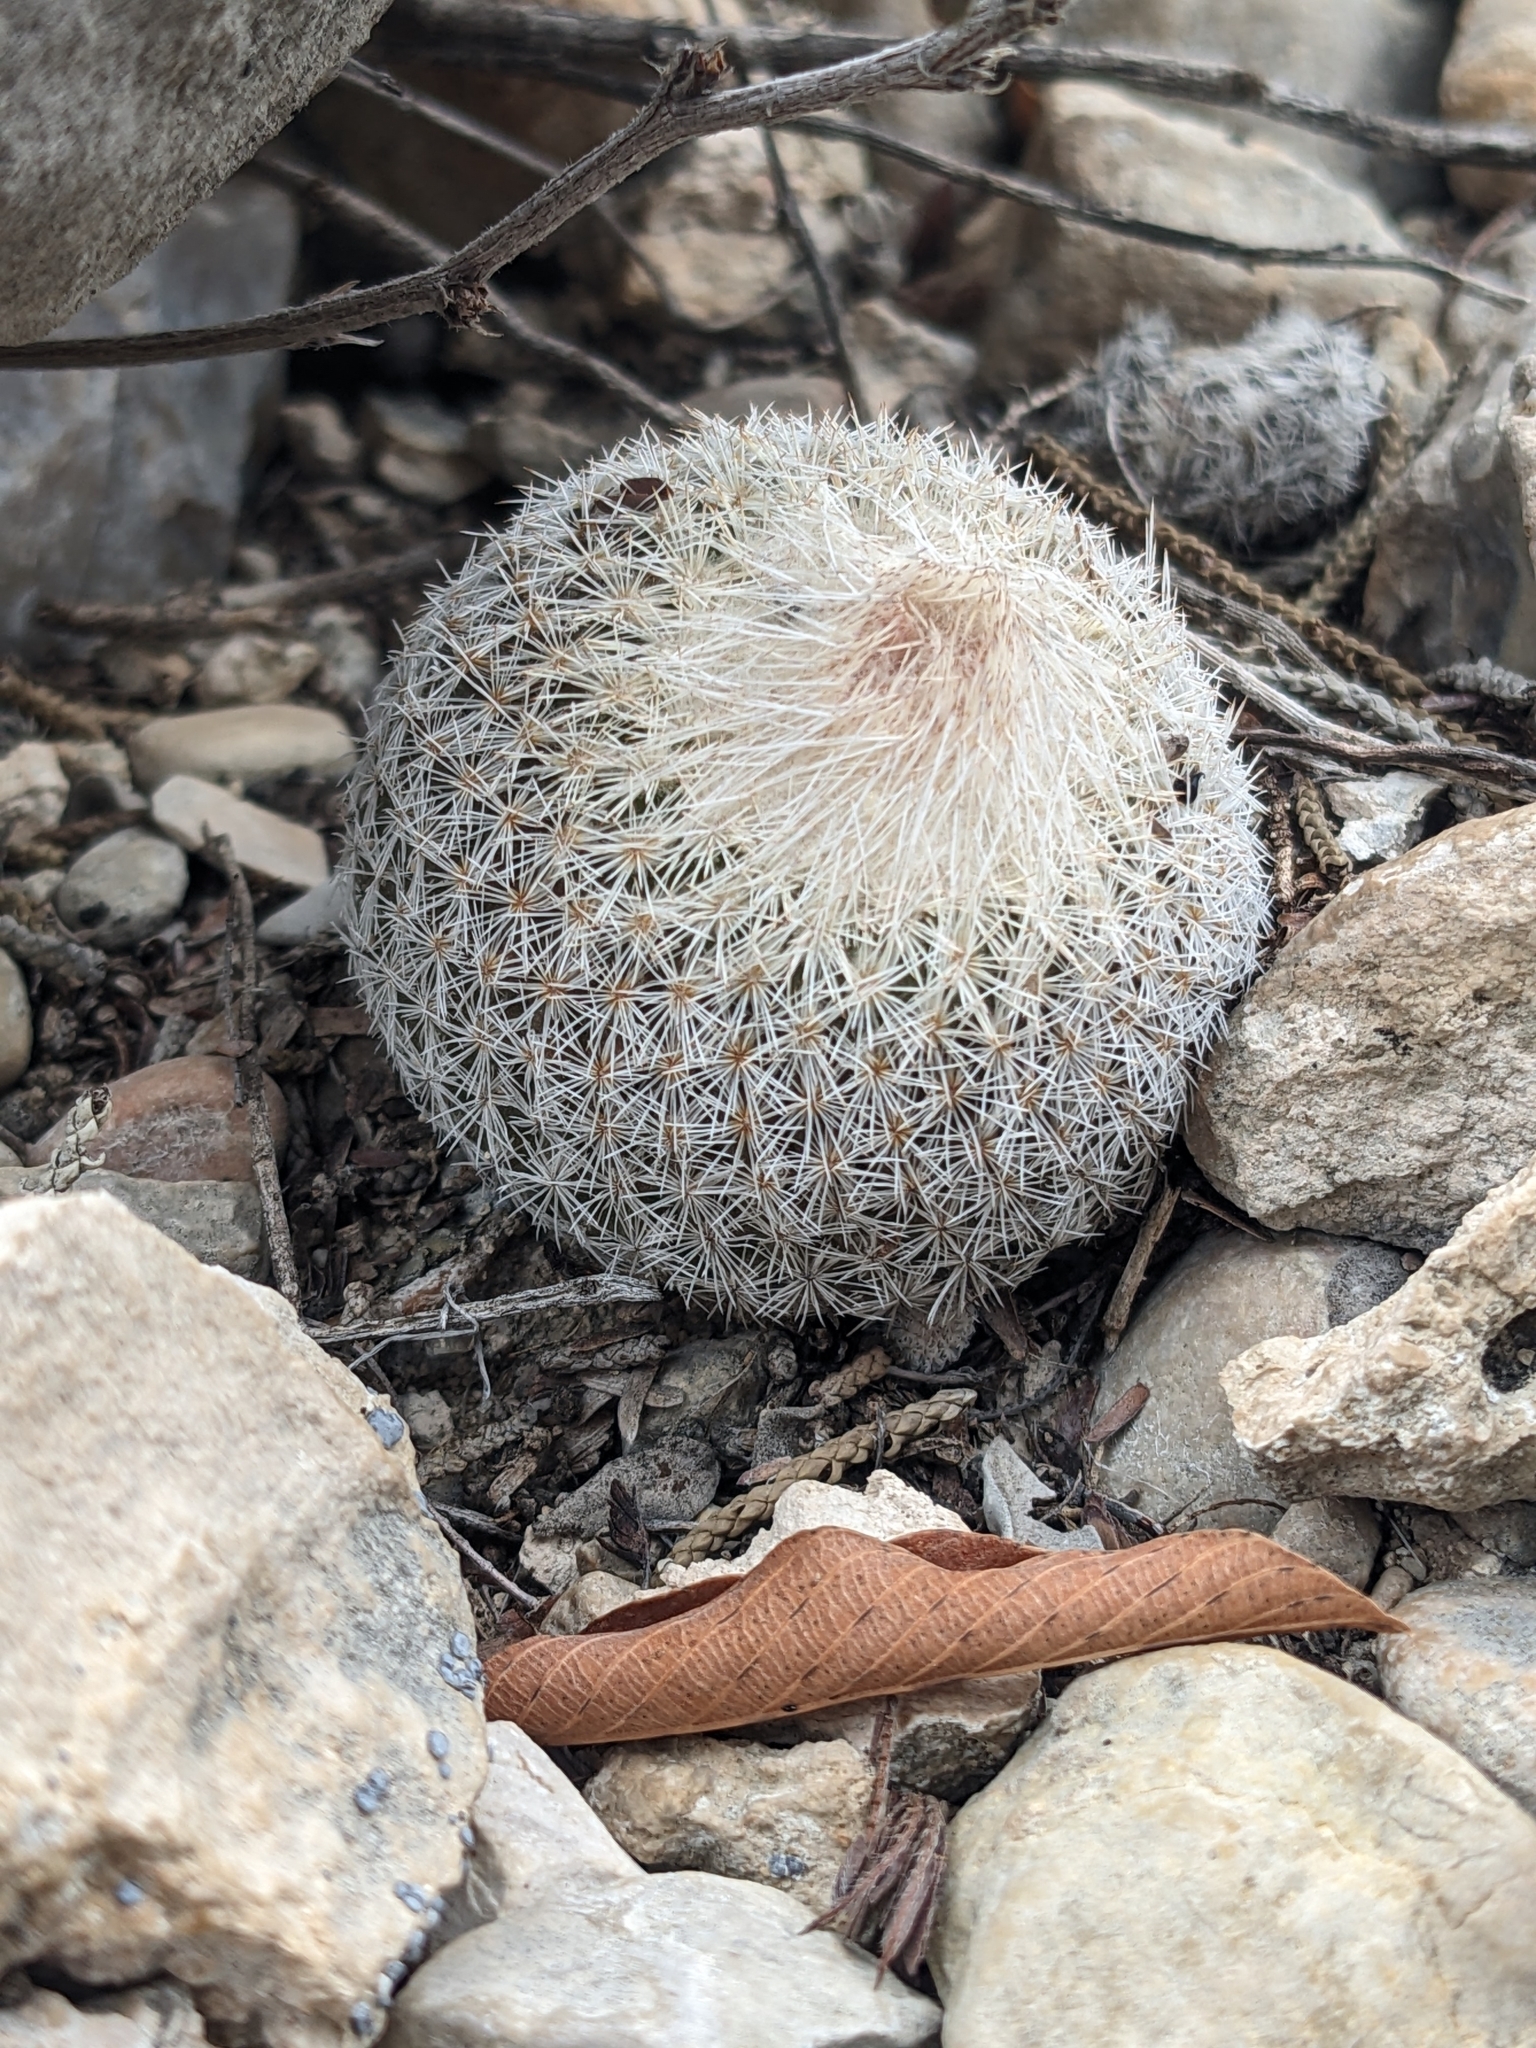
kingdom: Plantae
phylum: Tracheophyta
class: Magnoliopsida
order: Caryophyllales
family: Cactaceae
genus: Epithelantha
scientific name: Epithelantha micromeris
